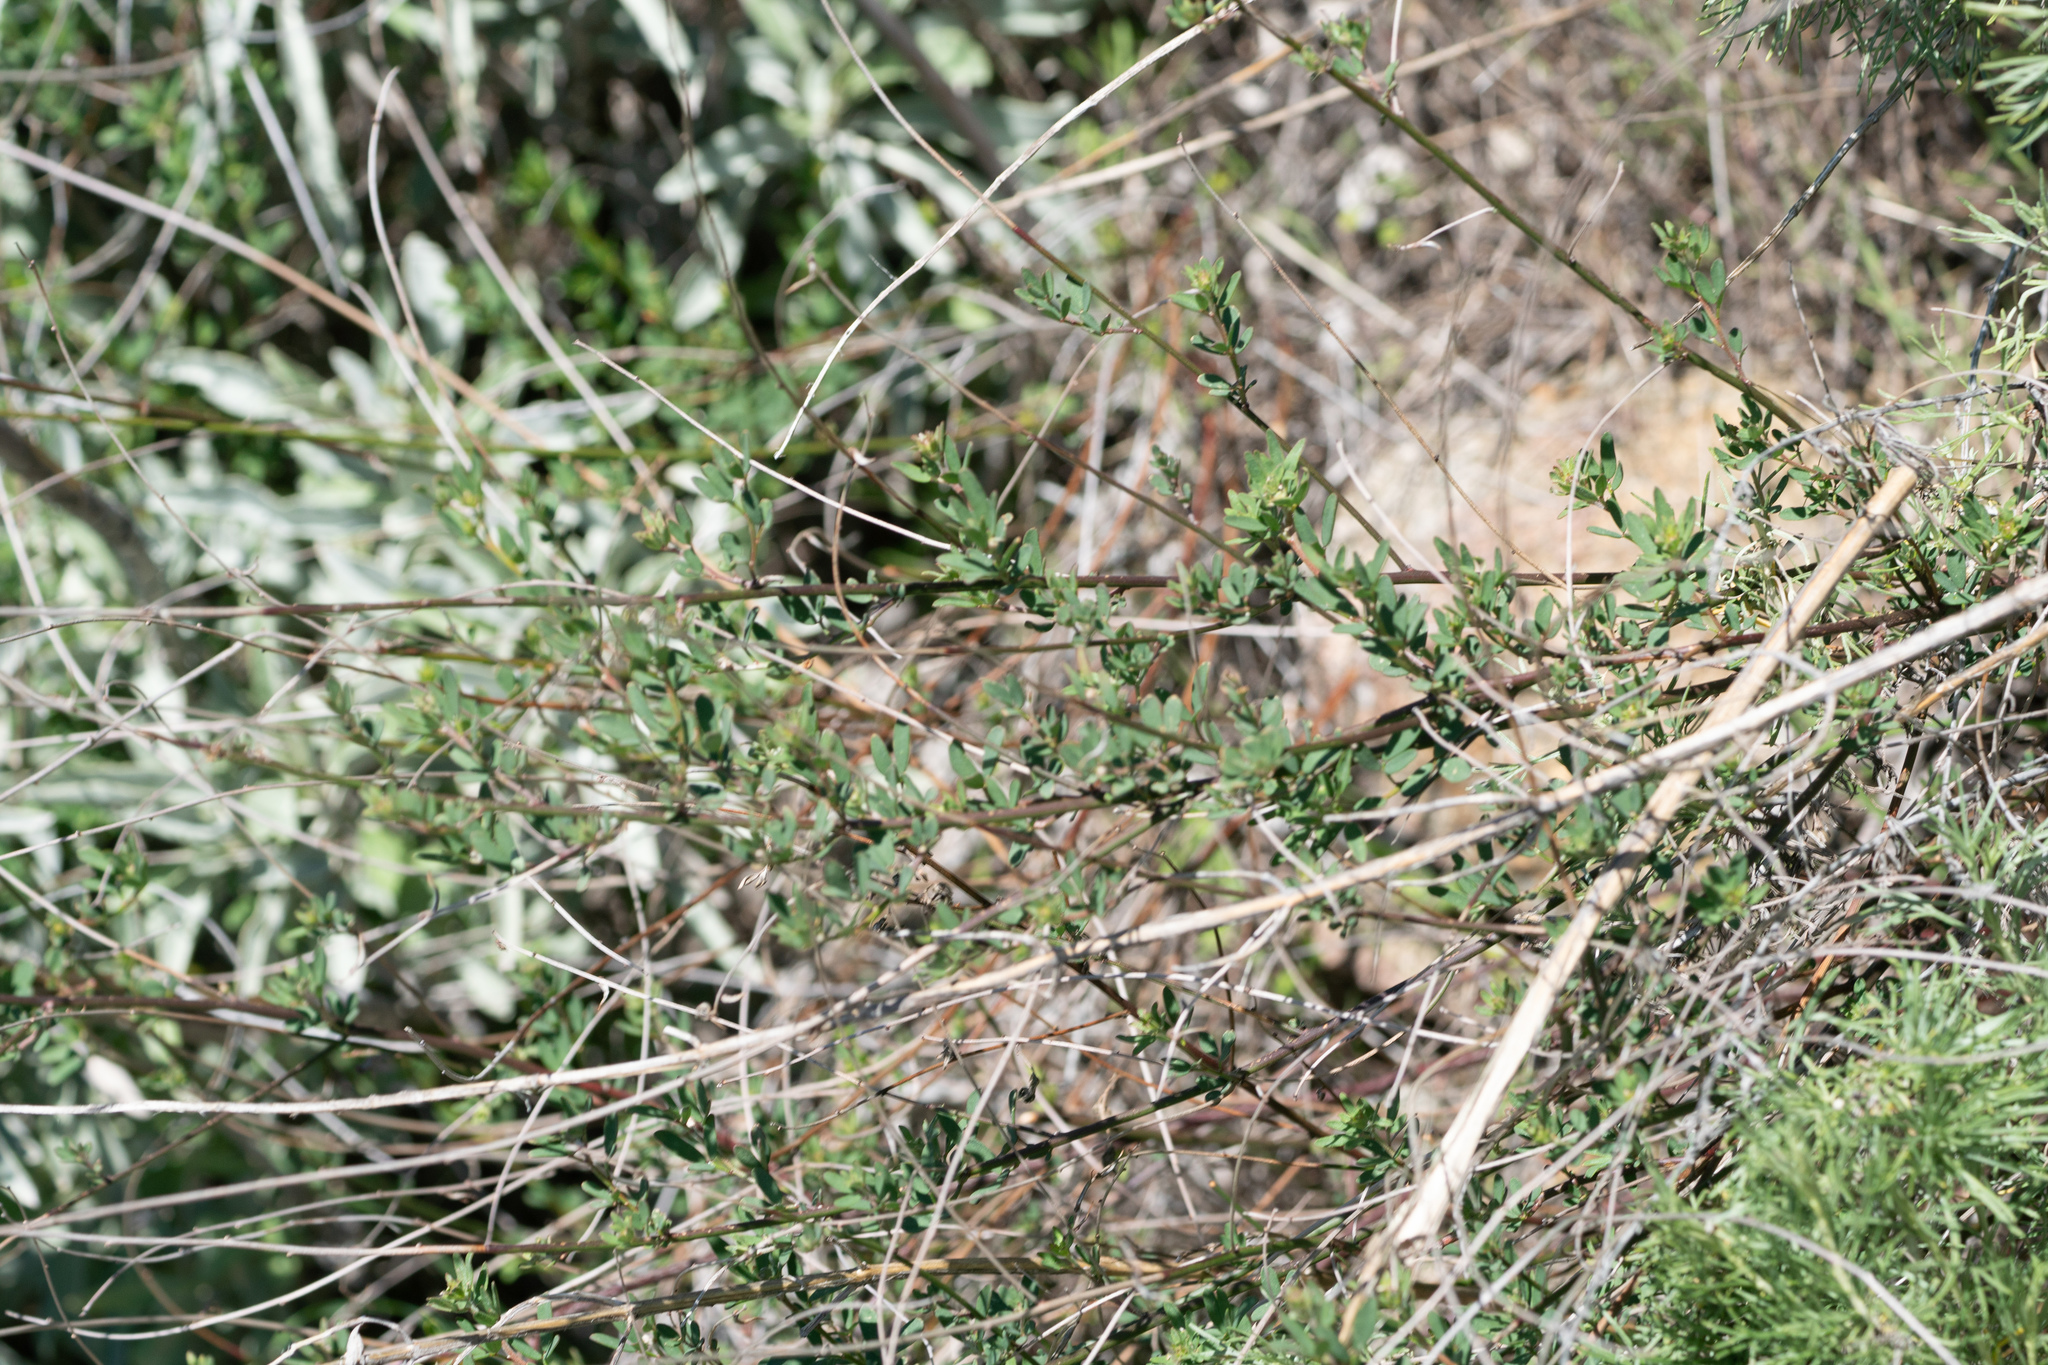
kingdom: Plantae
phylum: Tracheophyta
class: Magnoliopsida
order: Fabales
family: Fabaceae
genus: Acmispon
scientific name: Acmispon glaber
